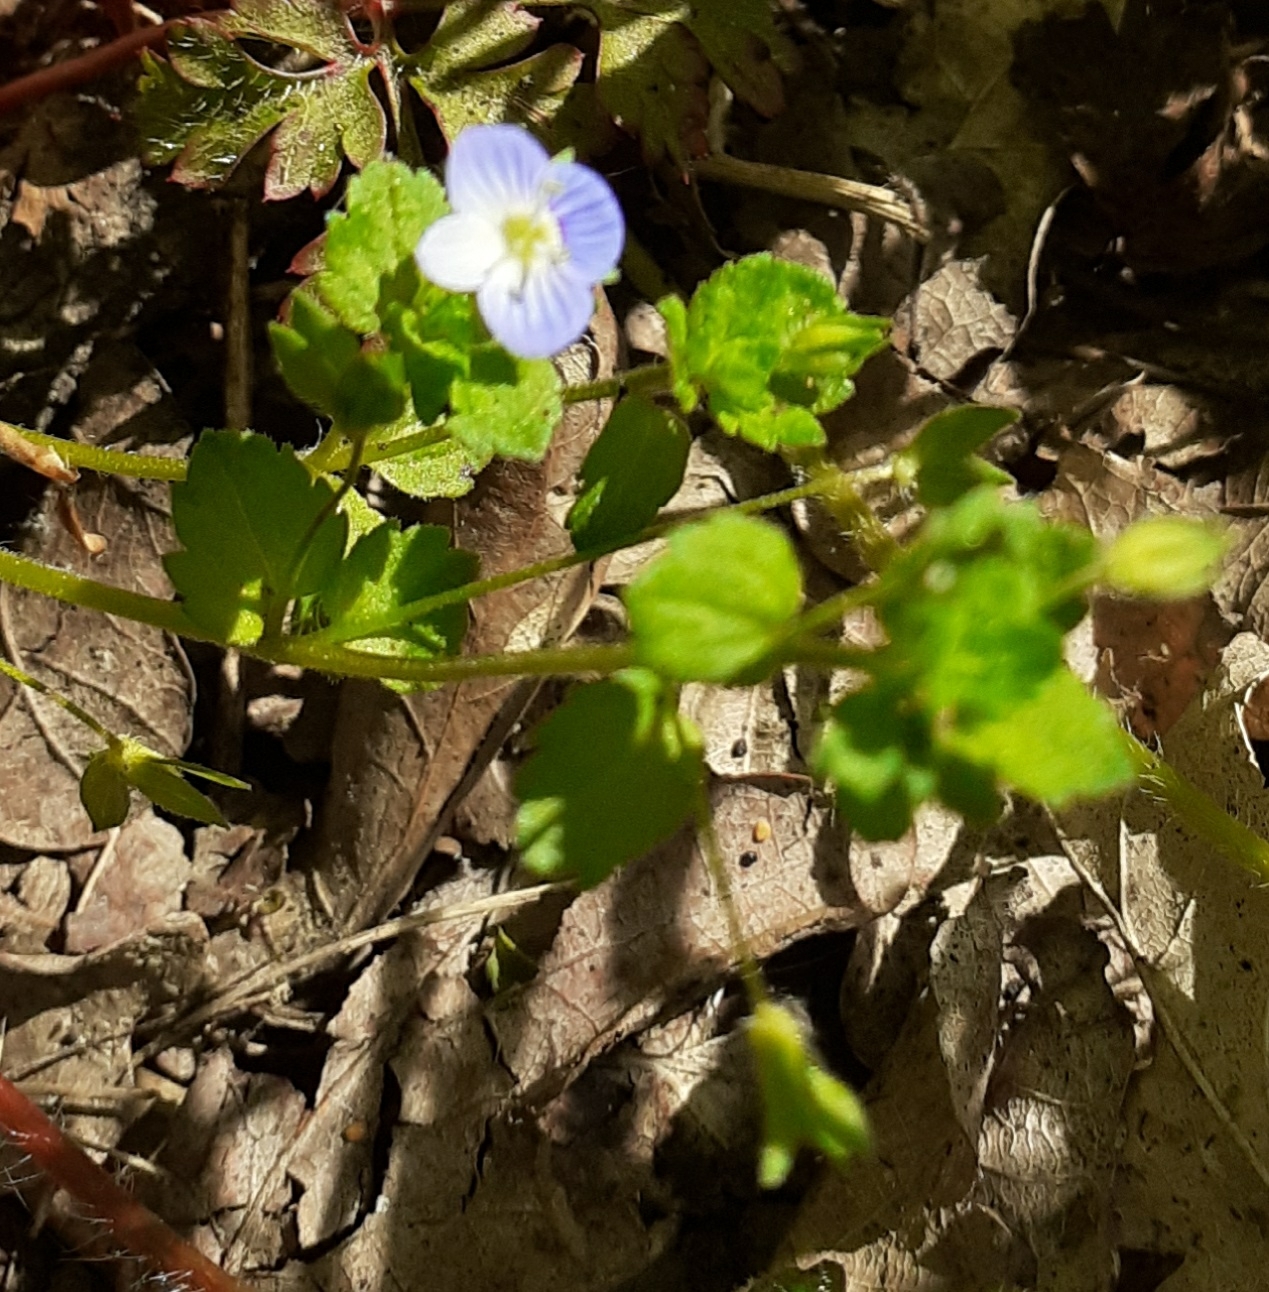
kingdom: Plantae
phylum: Tracheophyta
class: Magnoliopsida
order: Lamiales
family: Plantaginaceae
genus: Veronica
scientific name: Veronica persica
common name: Common field-speedwell
